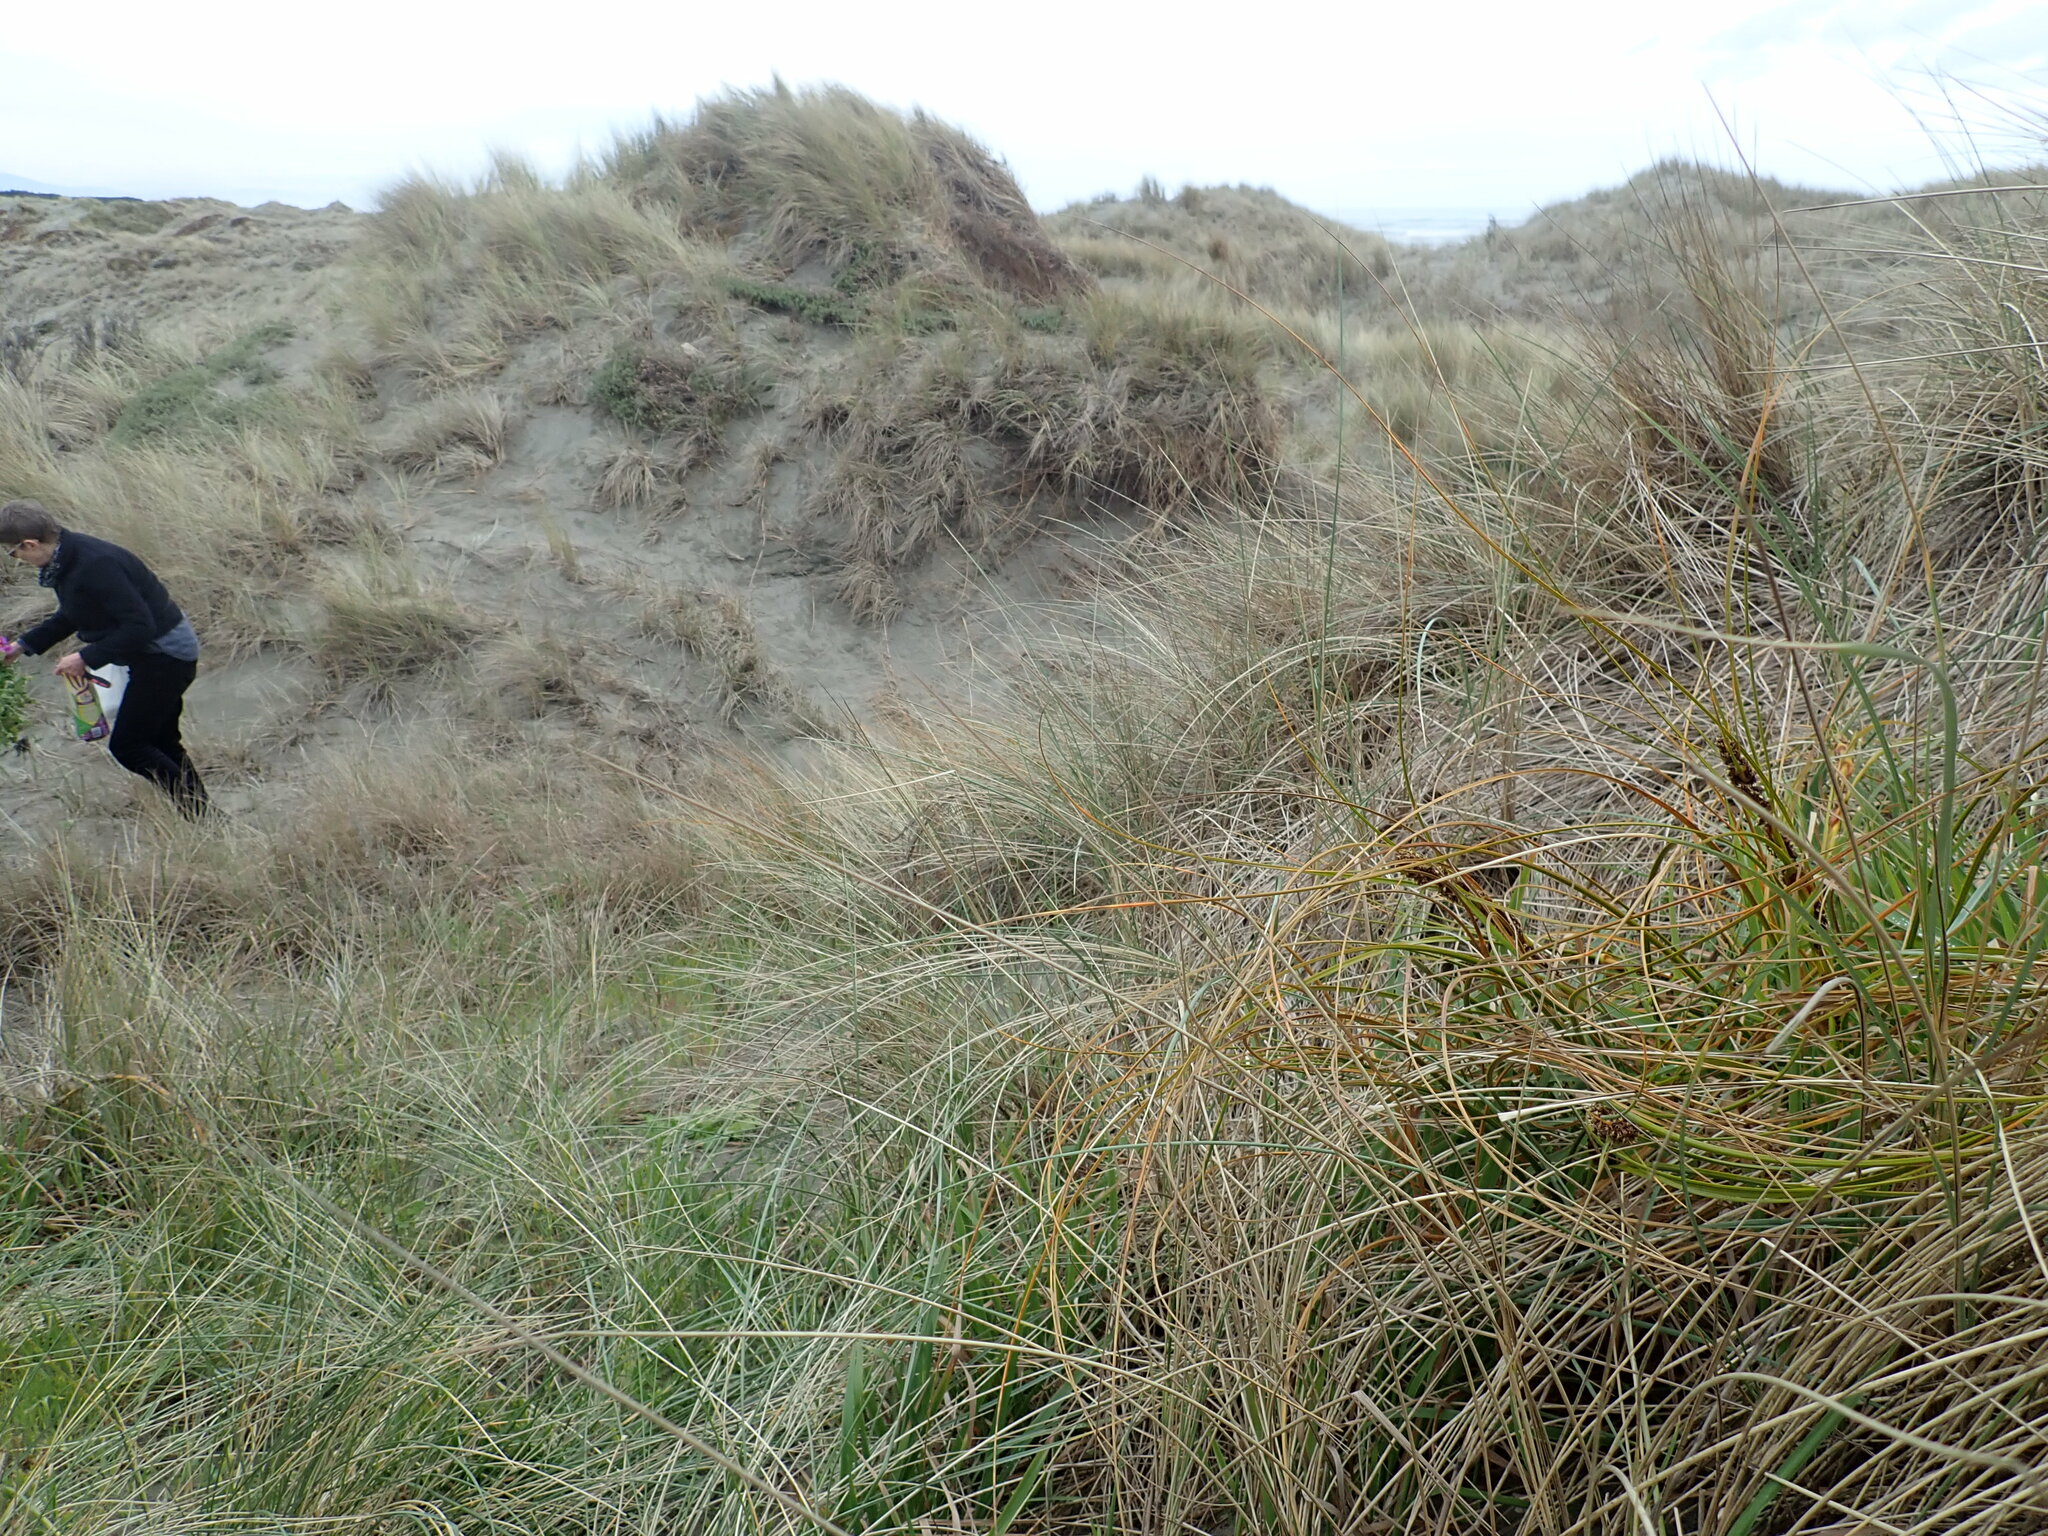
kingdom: Plantae
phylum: Tracheophyta
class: Liliopsida
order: Poales
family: Cyperaceae
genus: Ficinia
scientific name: Ficinia spiralis
